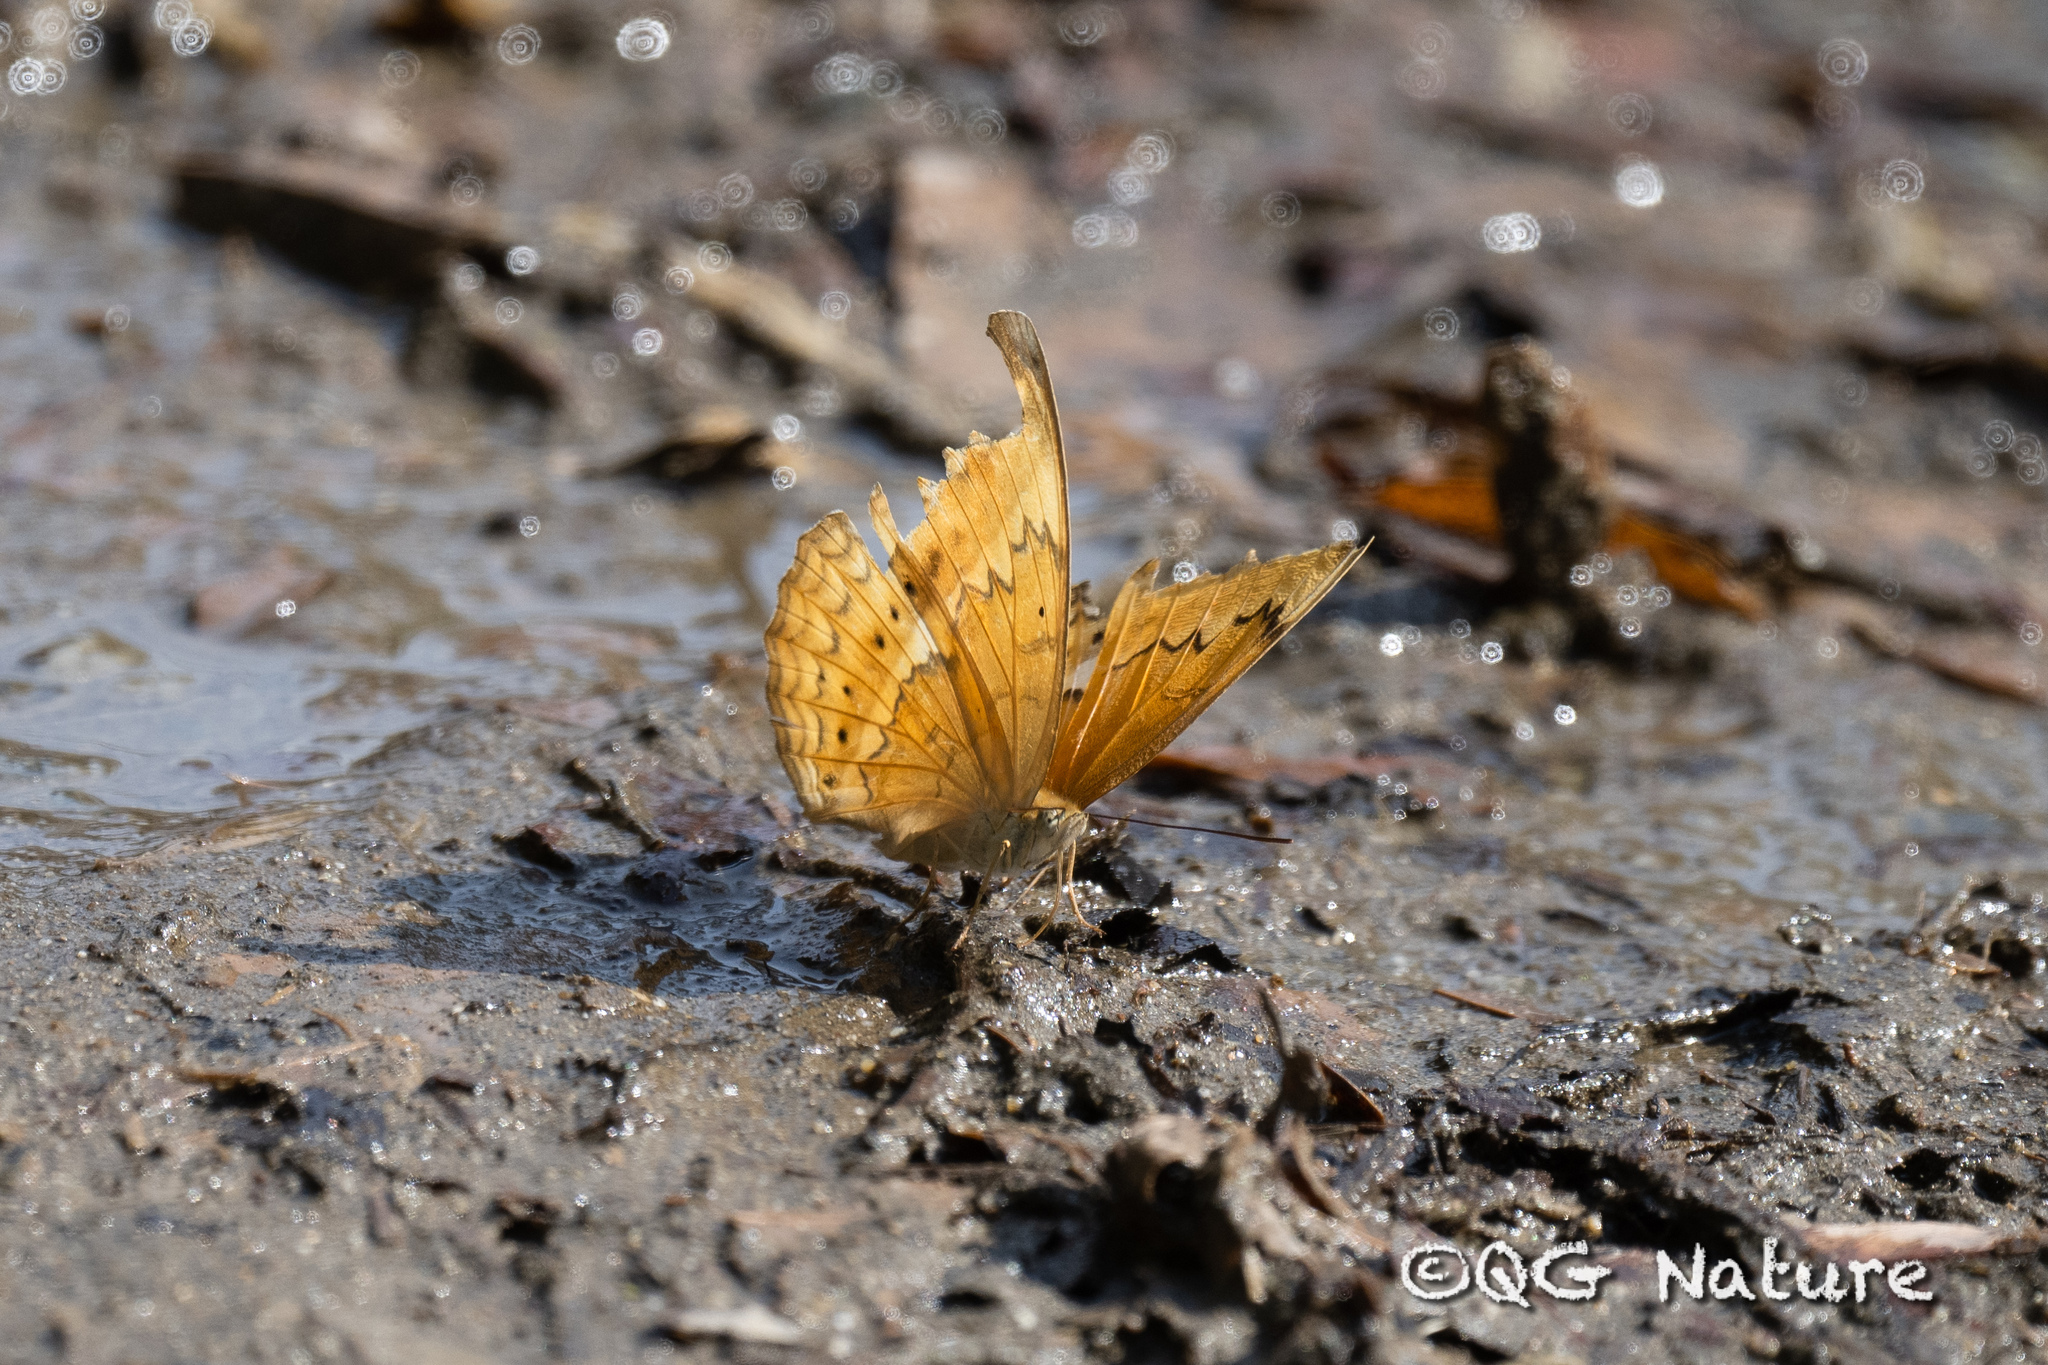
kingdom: Animalia
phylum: Arthropoda
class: Insecta
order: Lepidoptera
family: Nymphalidae
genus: Cirrochroa
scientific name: Cirrochroa tyche
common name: Common yeoman
